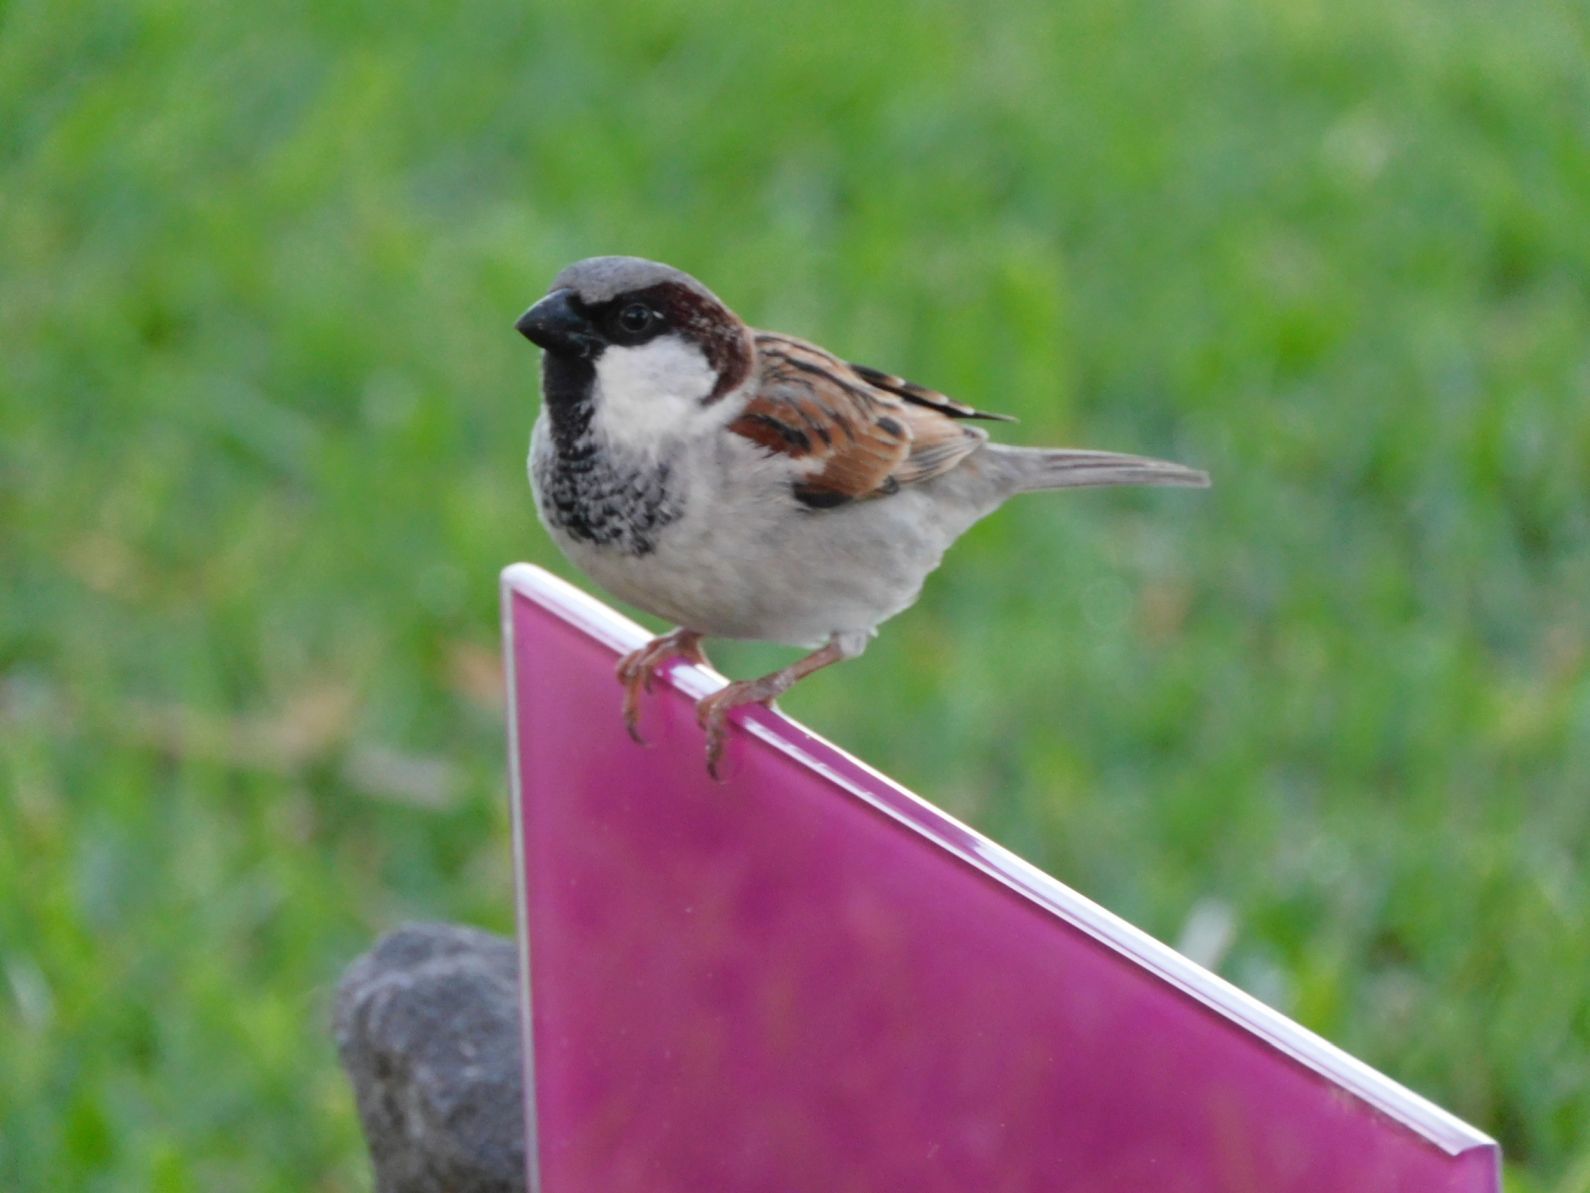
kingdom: Animalia
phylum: Chordata
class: Aves
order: Passeriformes
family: Passeridae
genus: Passer
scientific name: Passer domesticus
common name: House sparrow
